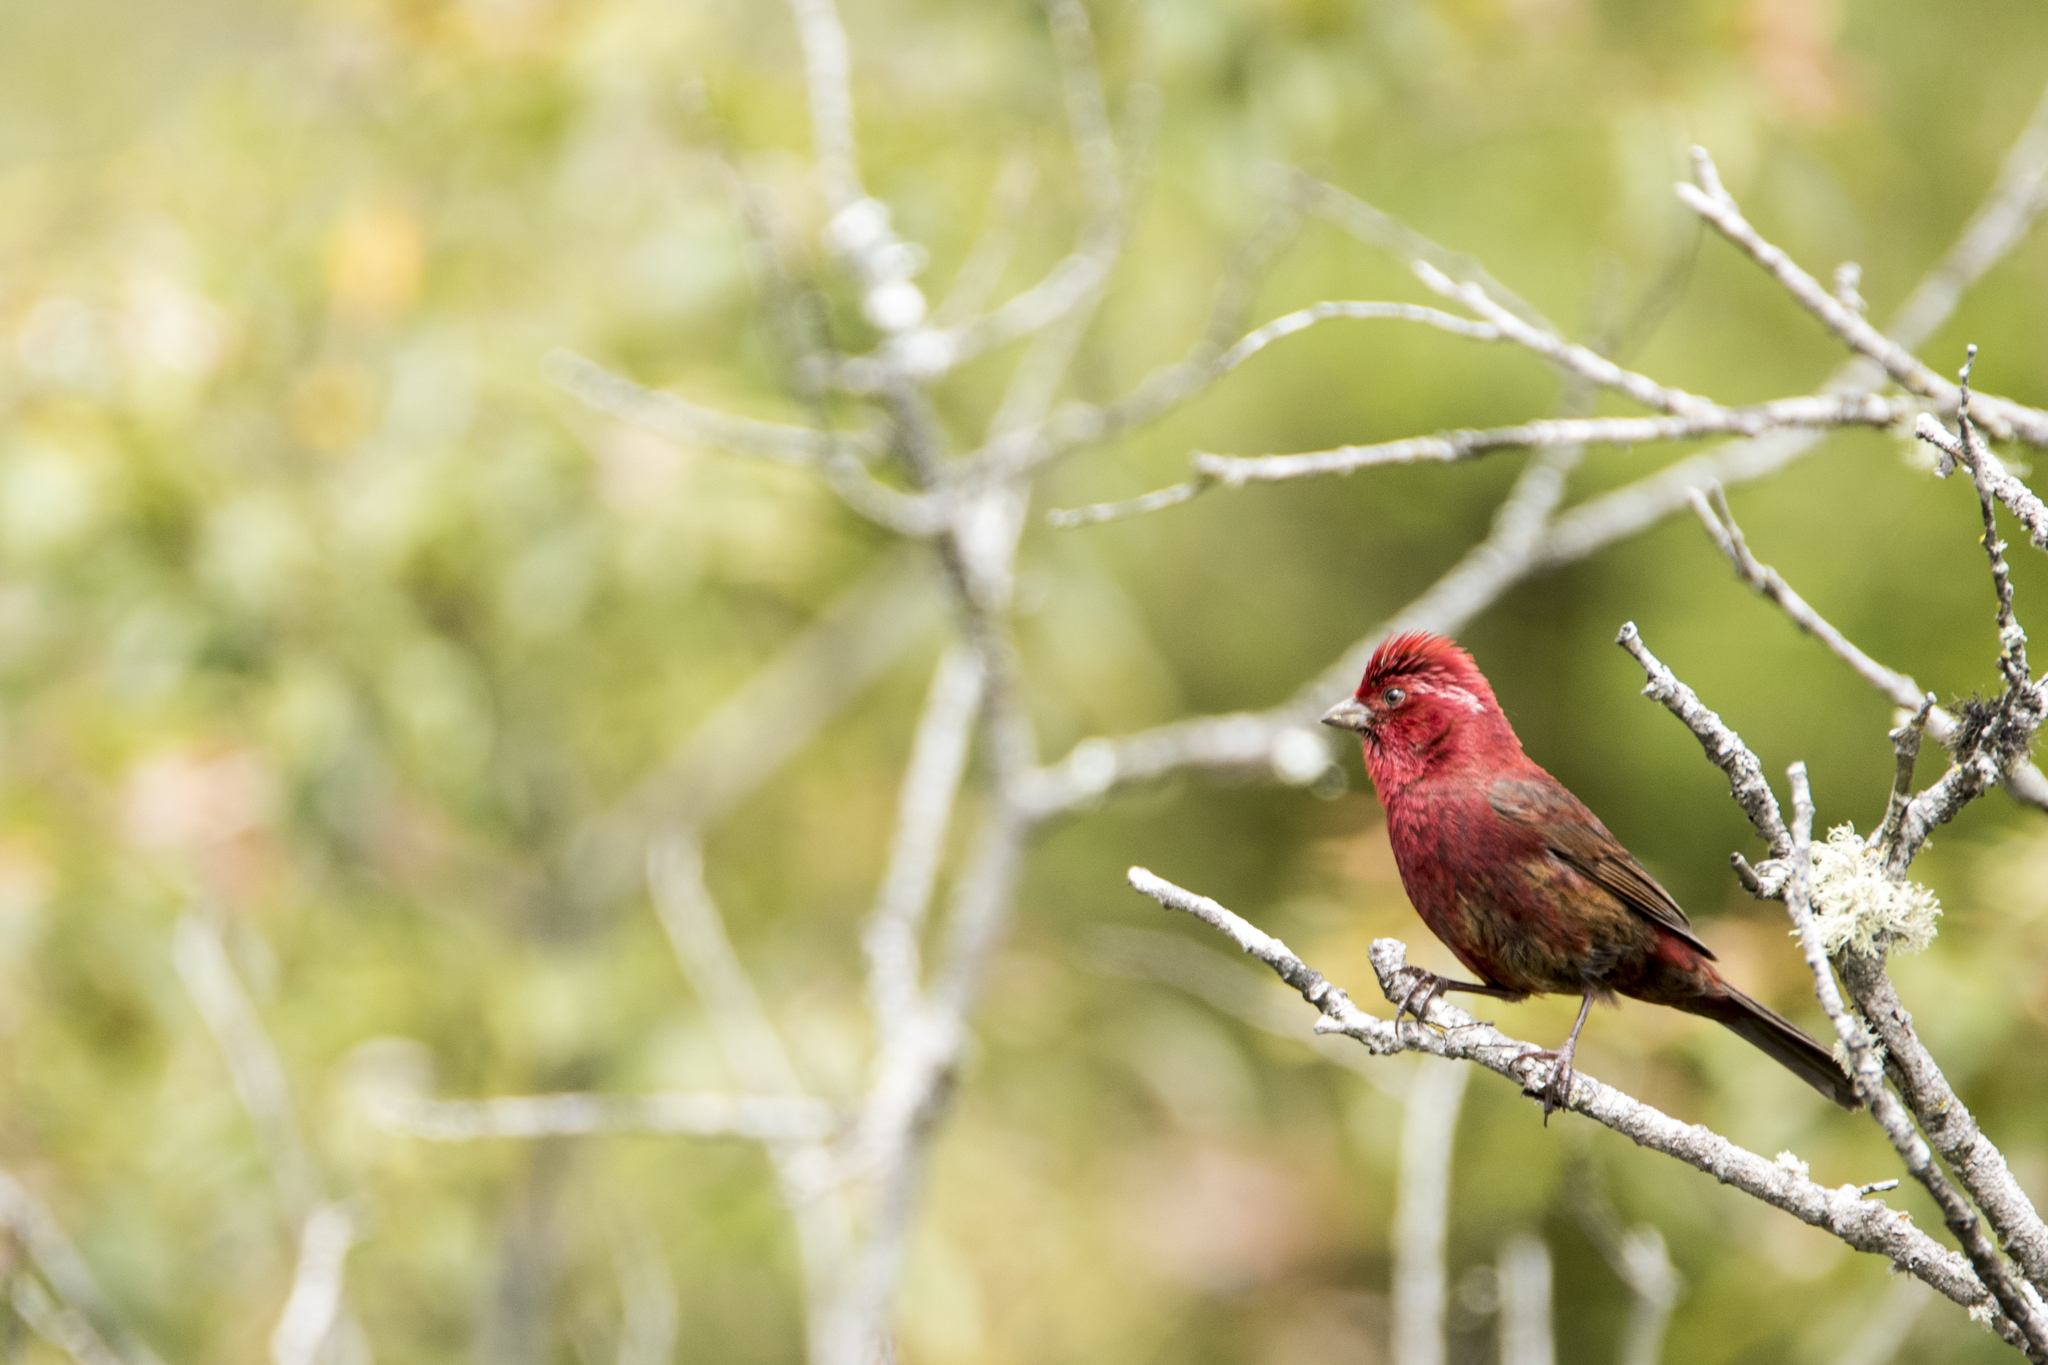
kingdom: Animalia
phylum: Chordata
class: Aves
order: Passeriformes
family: Fringillidae
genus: Carpodacus
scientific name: Carpodacus formosanus
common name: Taiwan rosefinch
